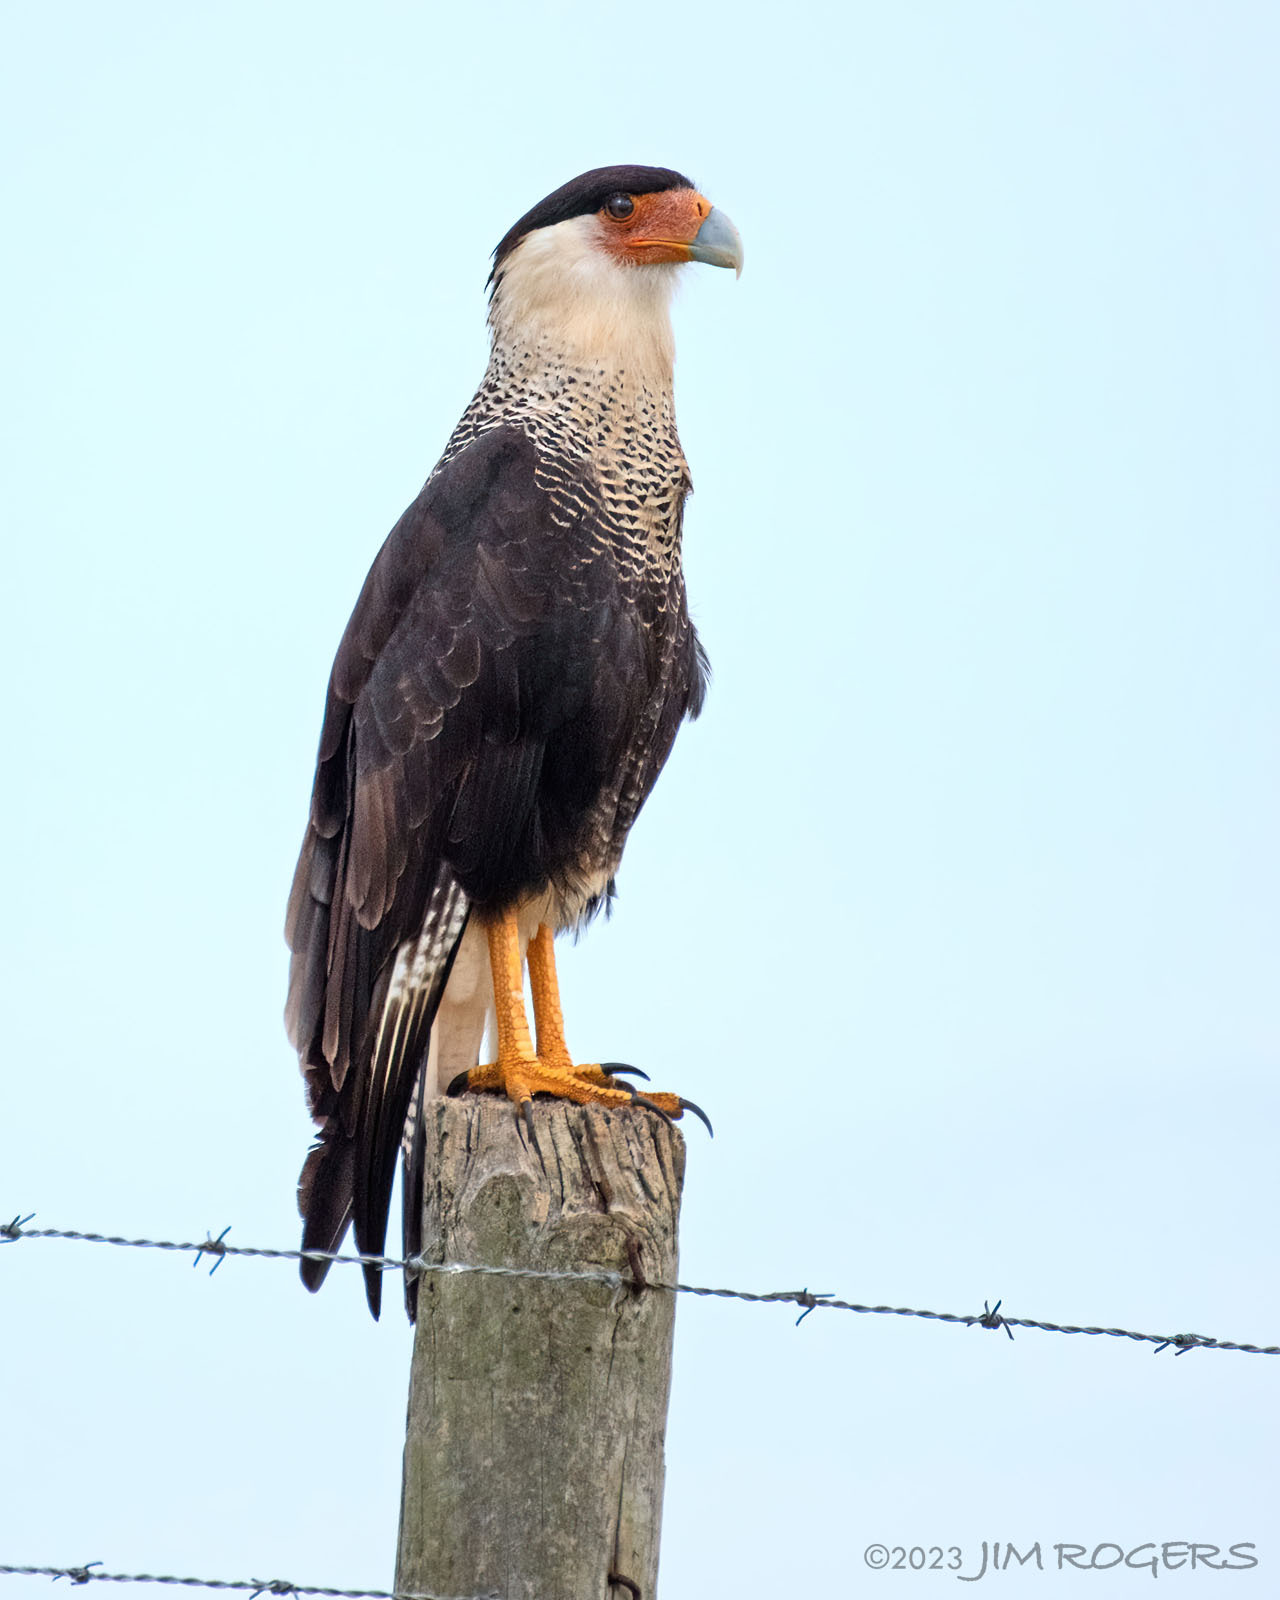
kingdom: Animalia
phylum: Chordata
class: Aves
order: Falconiformes
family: Falconidae
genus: Caracara
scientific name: Caracara plancus
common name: Southern caracara
